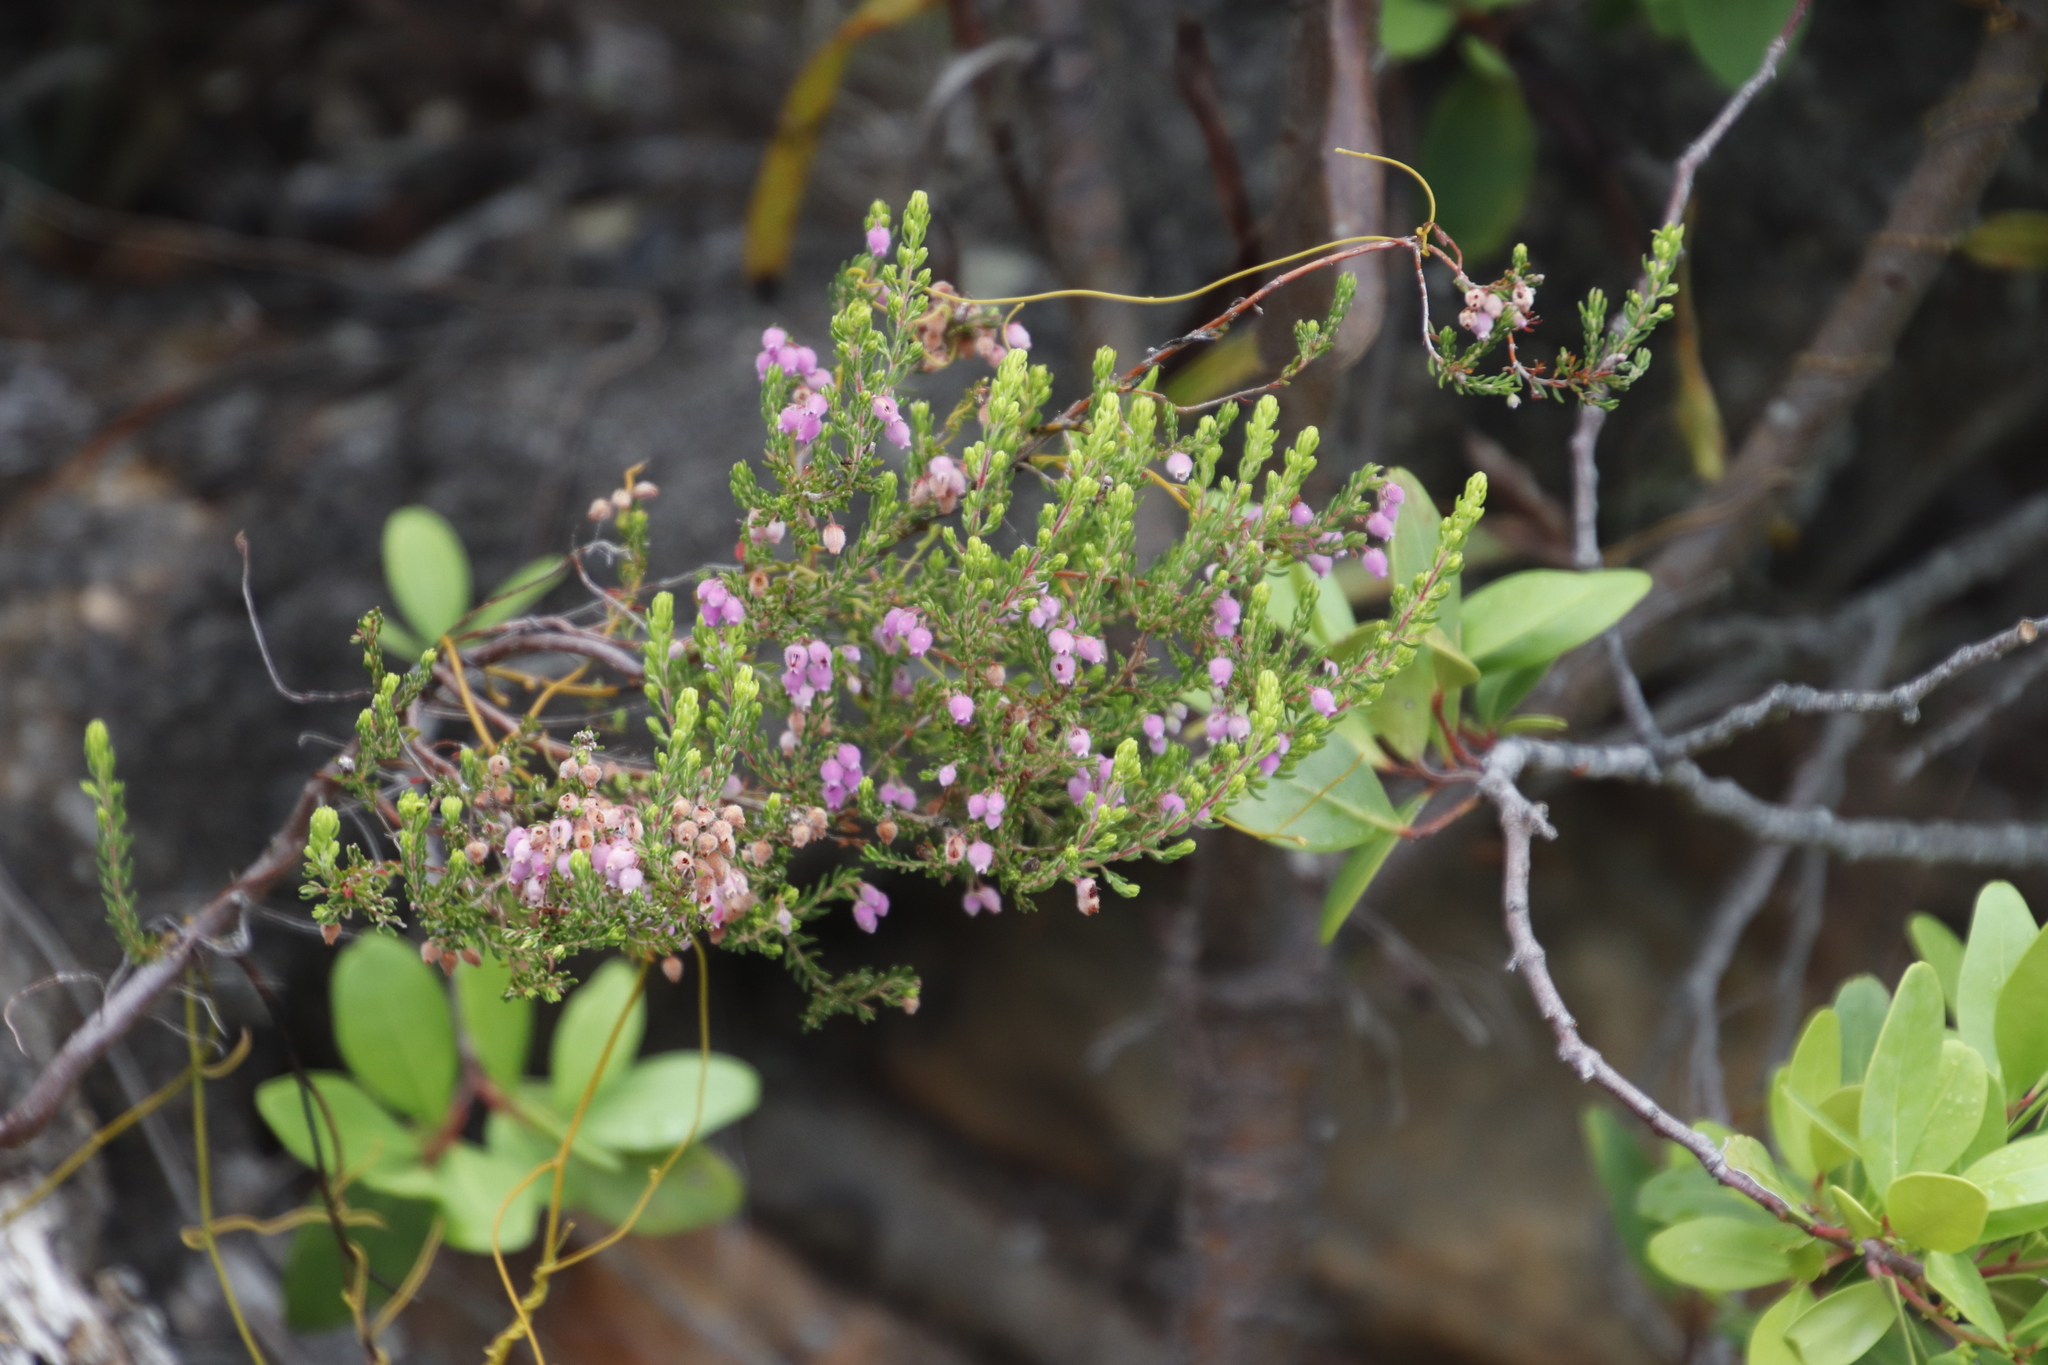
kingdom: Plantae
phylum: Tracheophyta
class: Magnoliopsida
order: Ericales
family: Ericaceae
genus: Erica
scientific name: Erica hirtiflora
